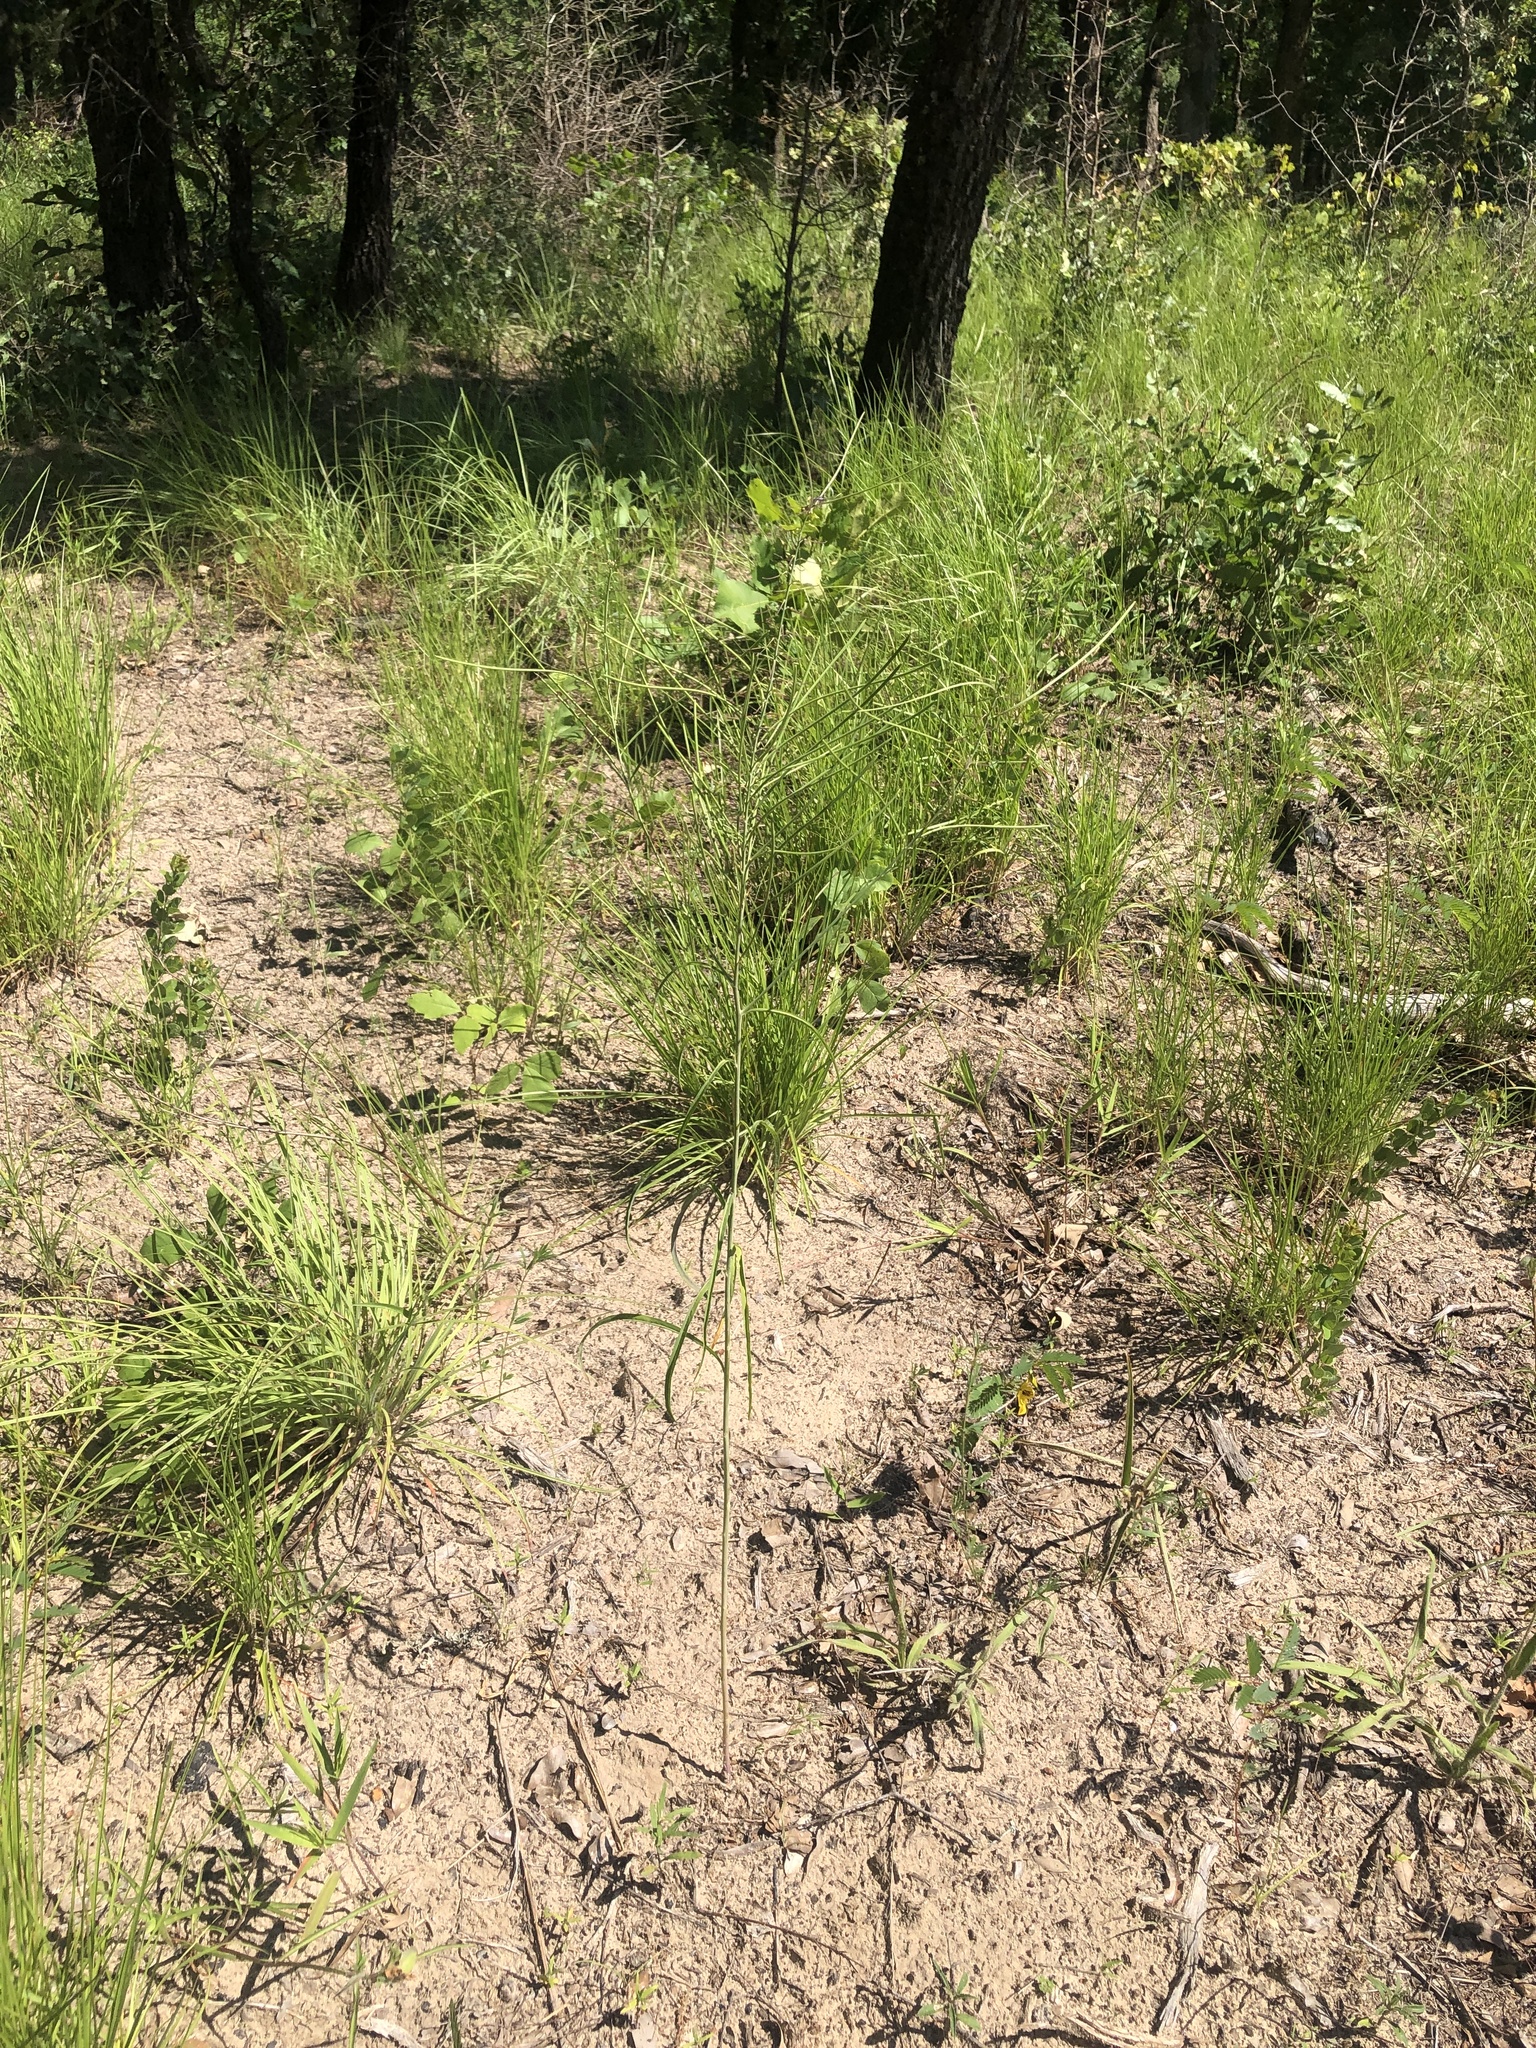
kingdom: Plantae
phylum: Tracheophyta
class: Magnoliopsida
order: Brassicales
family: Brassicaceae
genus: Streptanthus
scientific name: Streptanthus hyacinthoides
